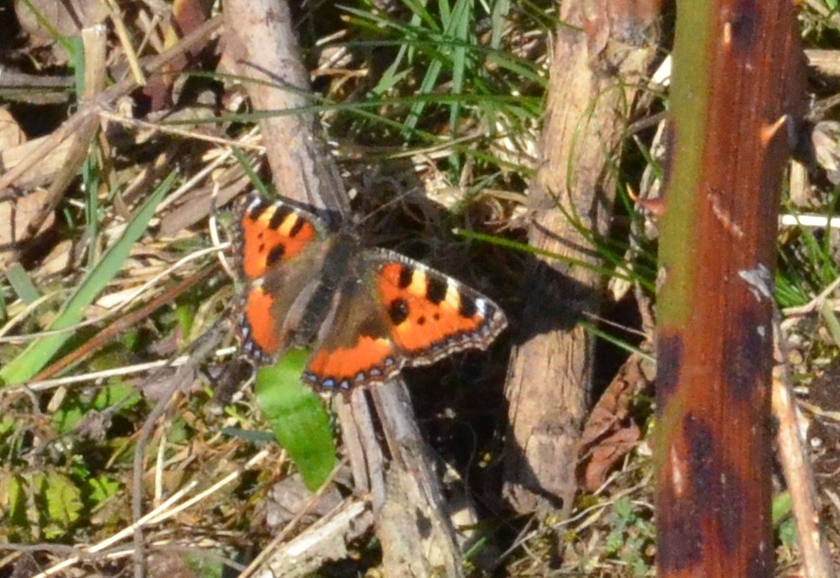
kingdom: Animalia
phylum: Arthropoda
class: Insecta
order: Lepidoptera
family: Nymphalidae
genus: Aglais
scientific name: Aglais urticae
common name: Small tortoiseshell
